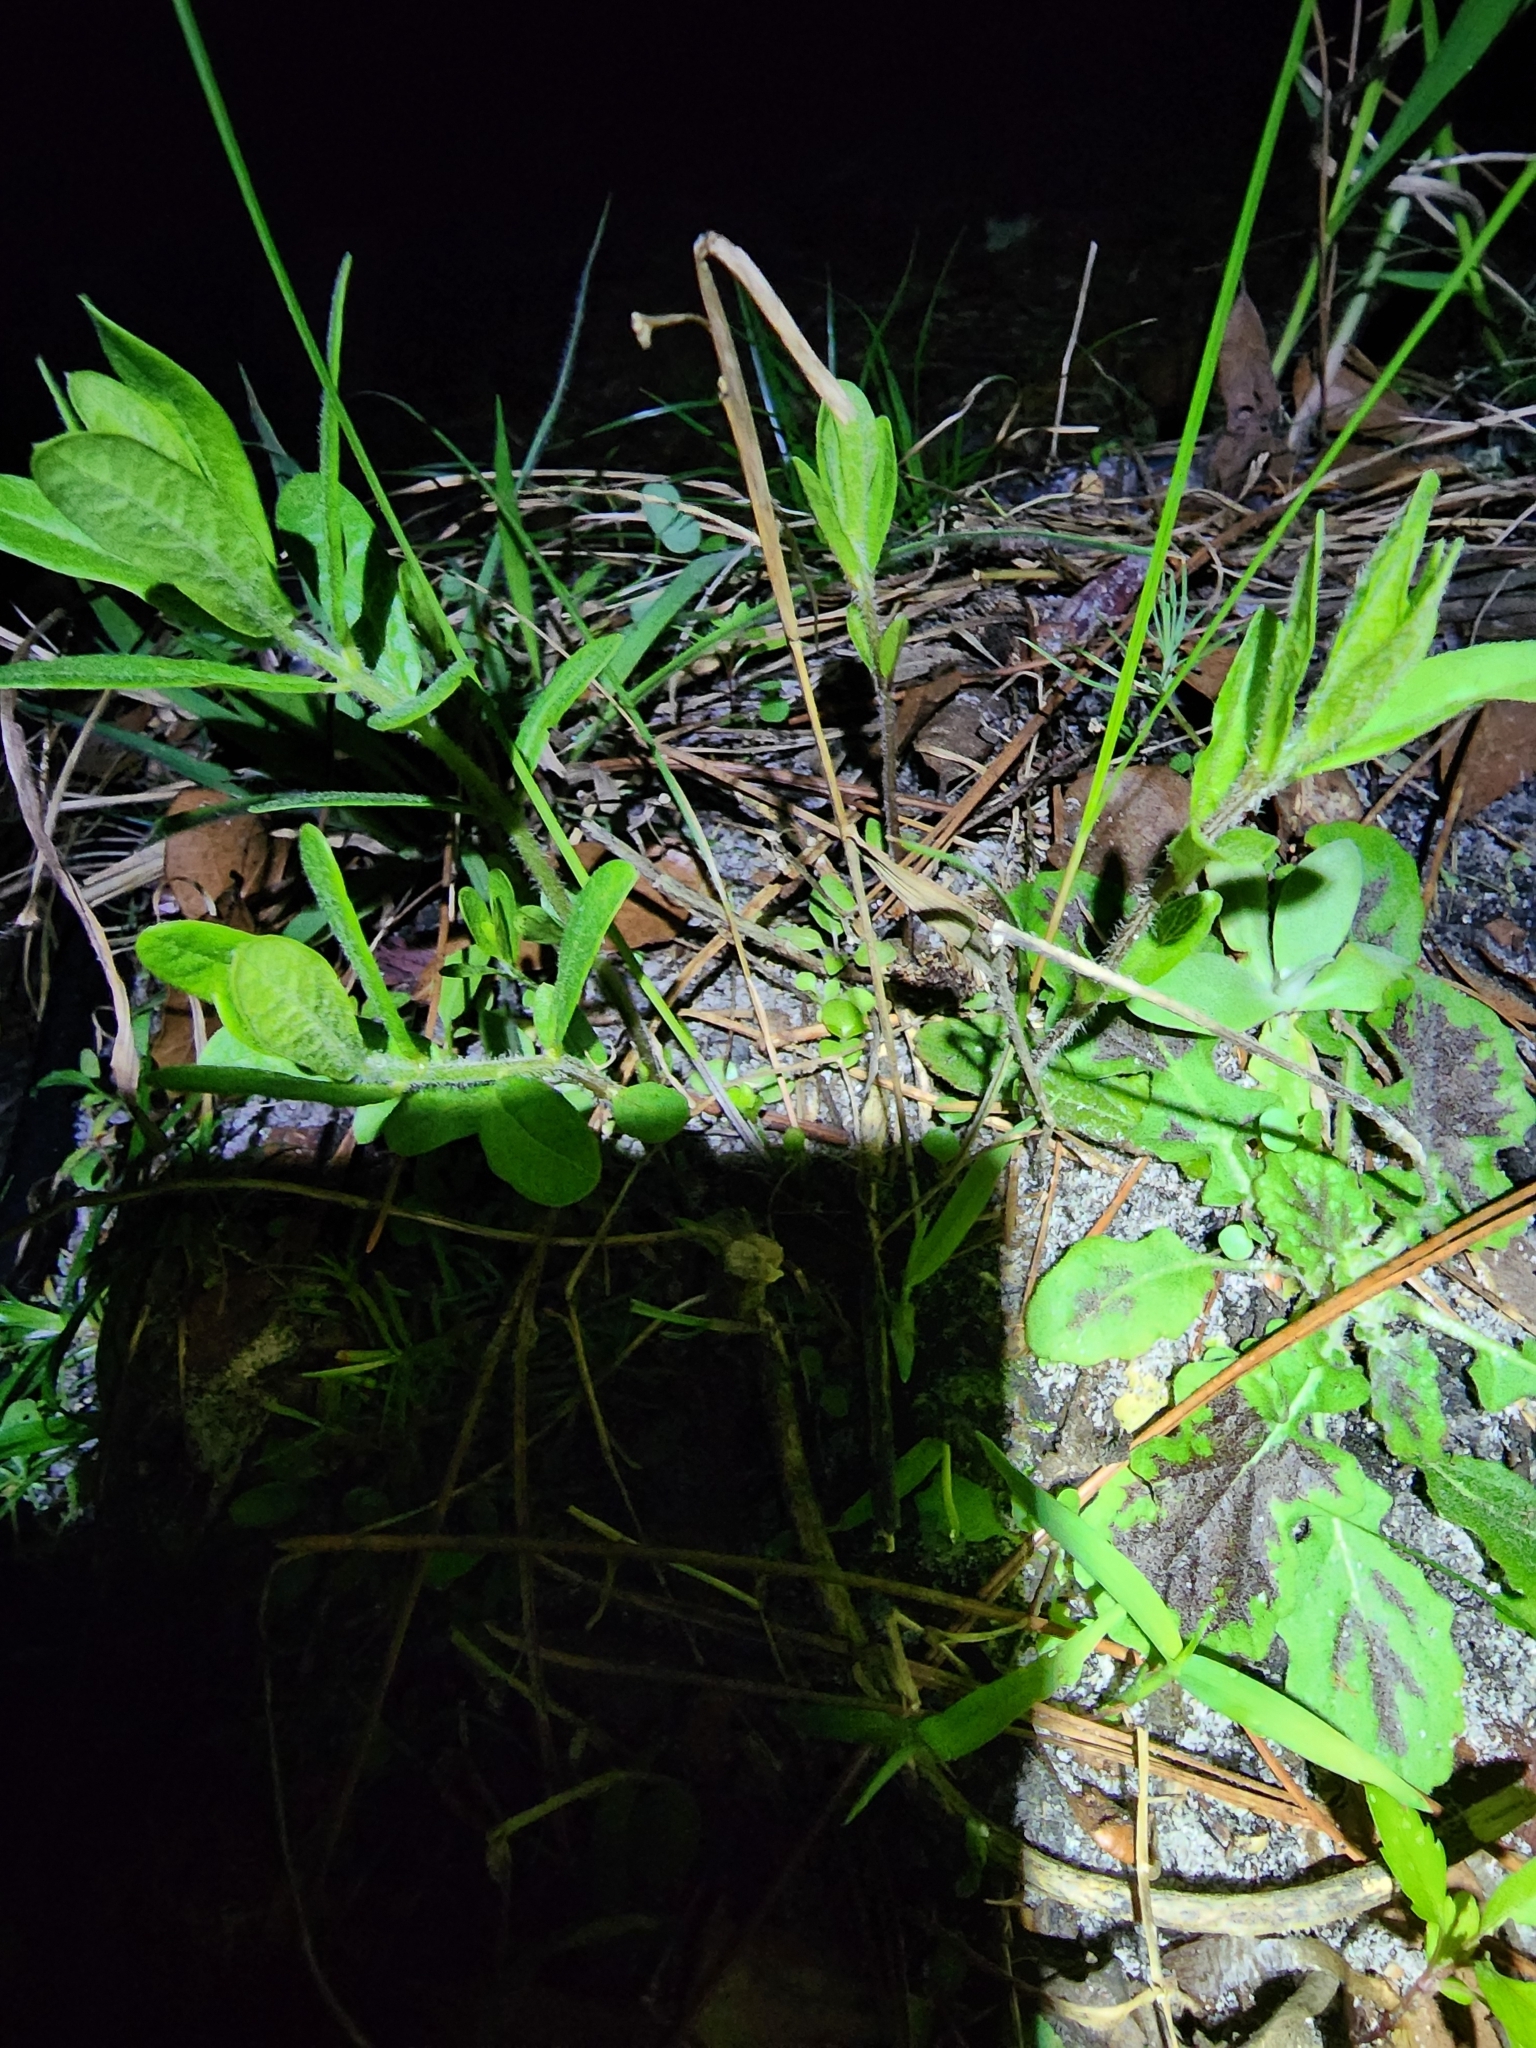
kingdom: Plantae
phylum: Tracheophyta
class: Magnoliopsida
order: Gentianales
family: Apocynaceae
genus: Asclepias
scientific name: Asclepias tuberosa
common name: Butterfly milkweed
